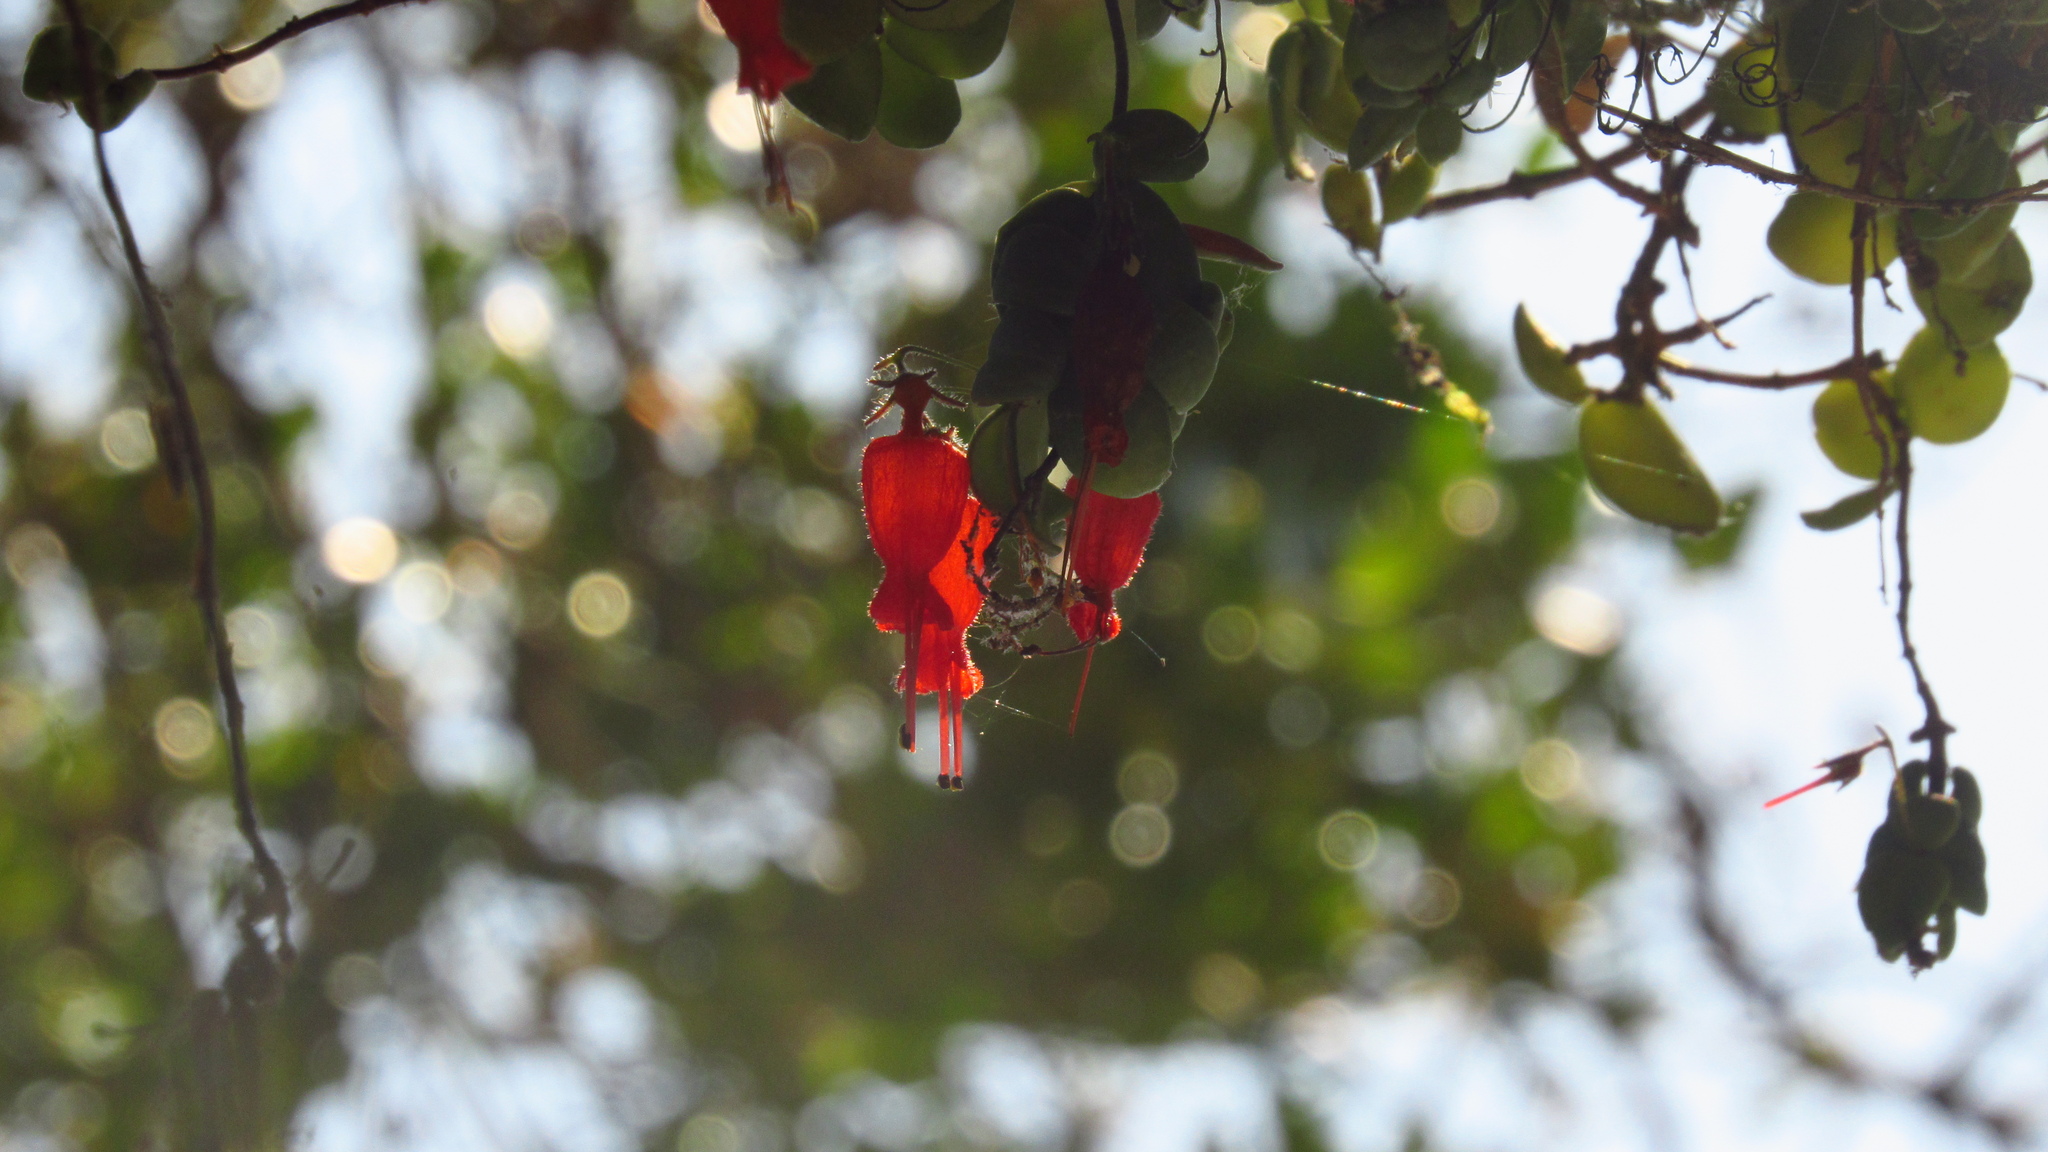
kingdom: Plantae
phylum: Tracheophyta
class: Magnoliopsida
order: Lamiales
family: Gesneriaceae
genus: Sarmienta
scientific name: Sarmienta scandens
